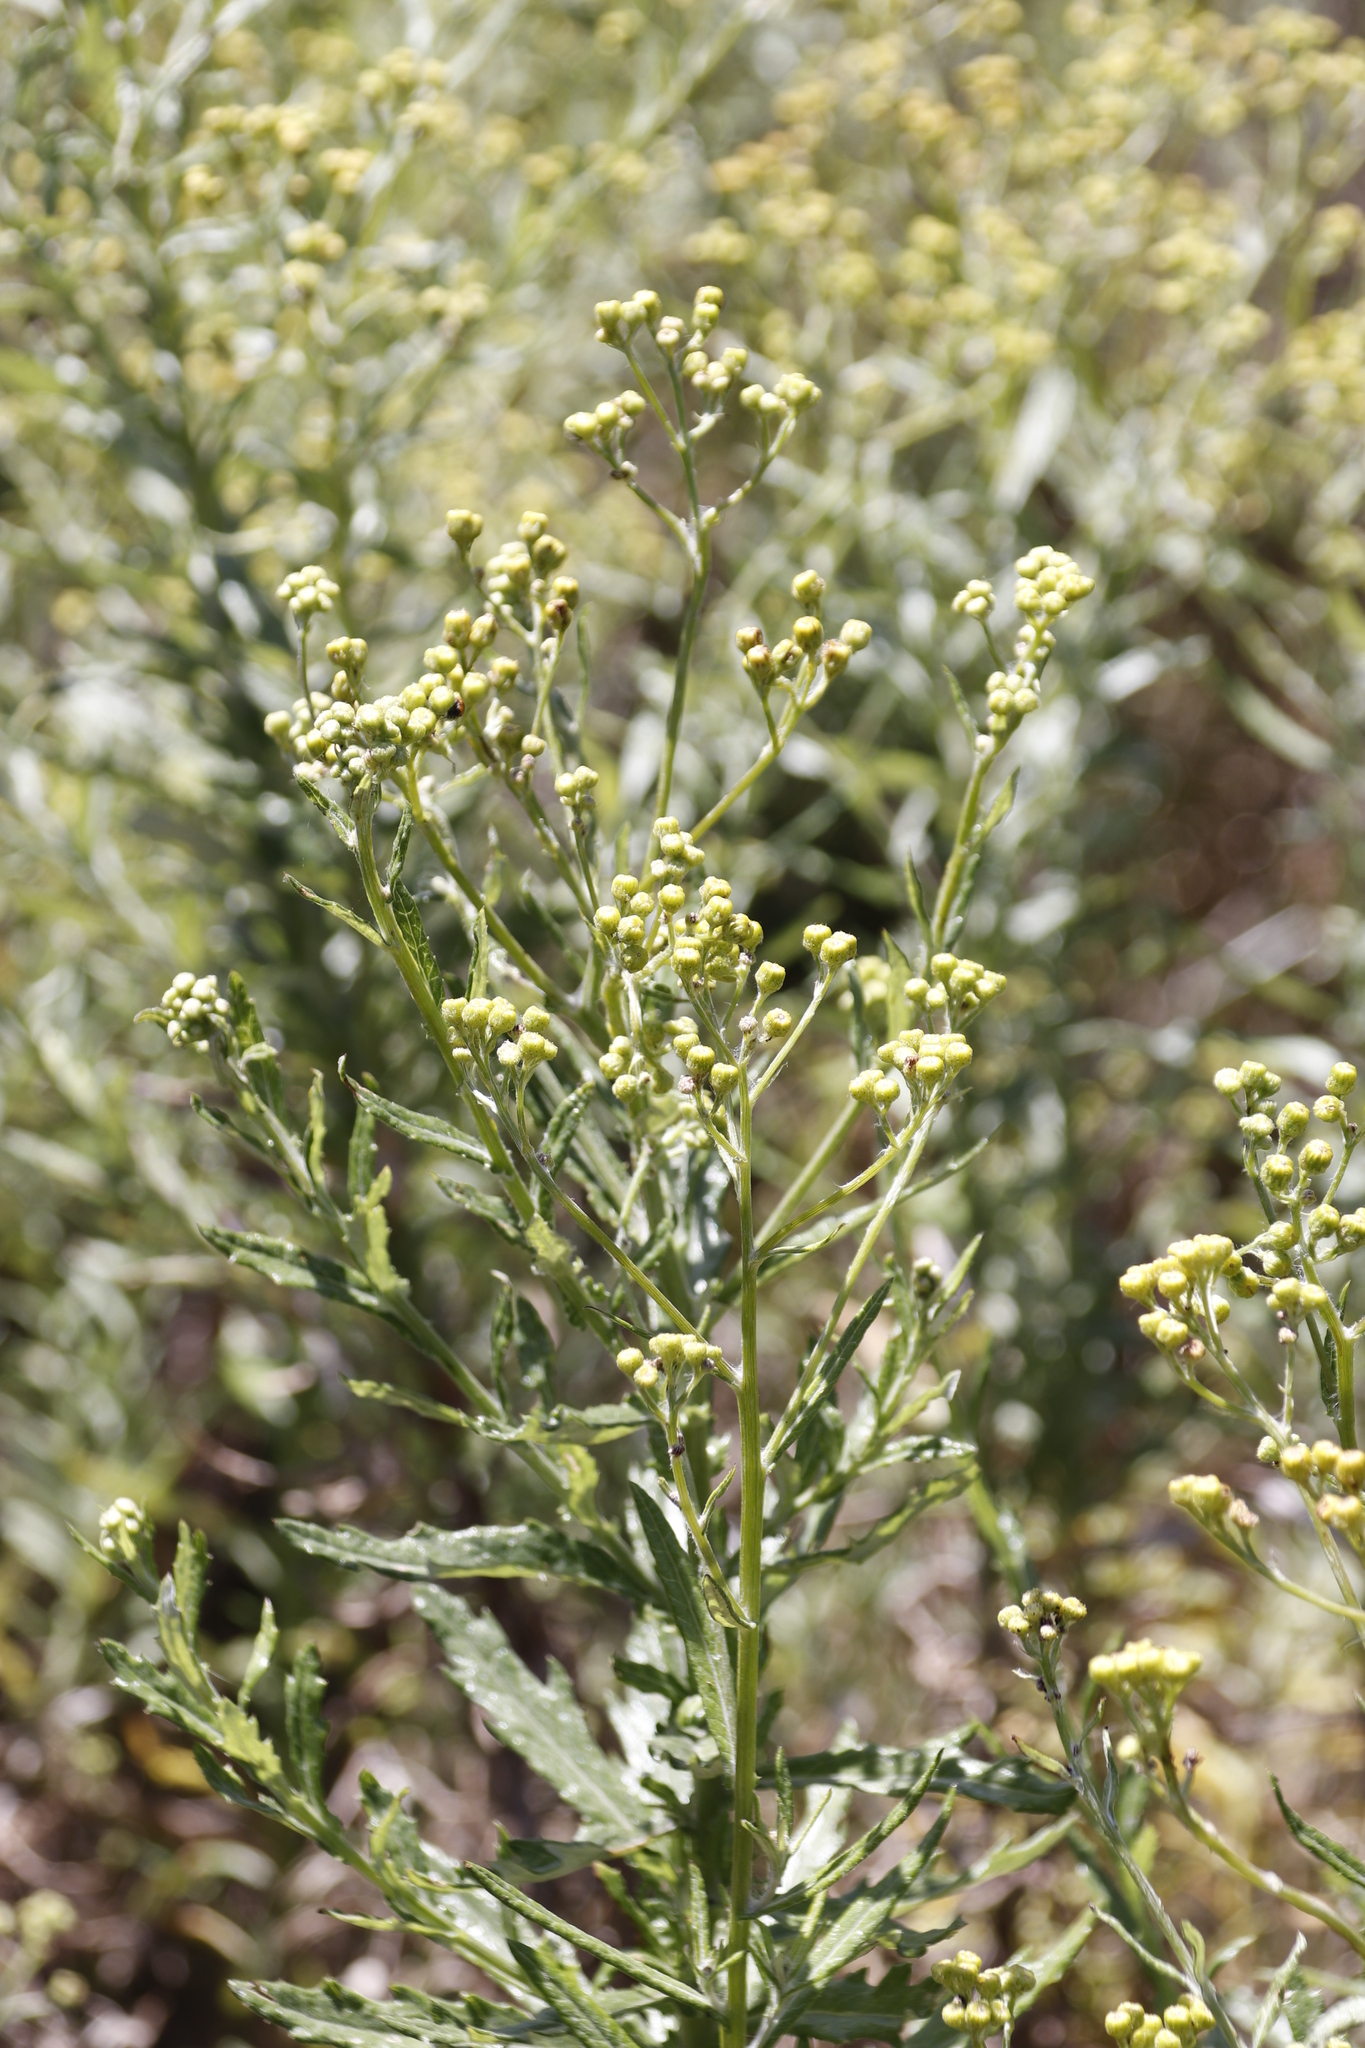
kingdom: Plantae
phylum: Tracheophyta
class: Magnoliopsida
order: Asterales
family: Asteraceae
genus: Senecio
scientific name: Senecio pterophorus
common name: Shoddy ragwort
